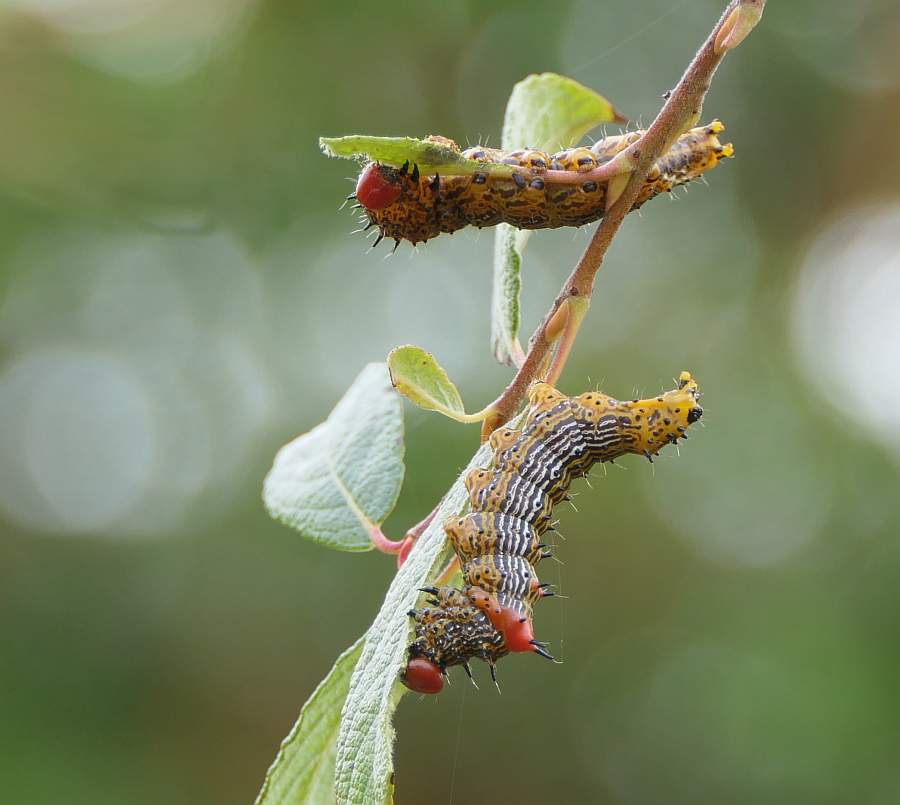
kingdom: Animalia
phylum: Arthropoda
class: Insecta
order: Lepidoptera
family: Notodontidae
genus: Schizura
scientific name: Schizura
